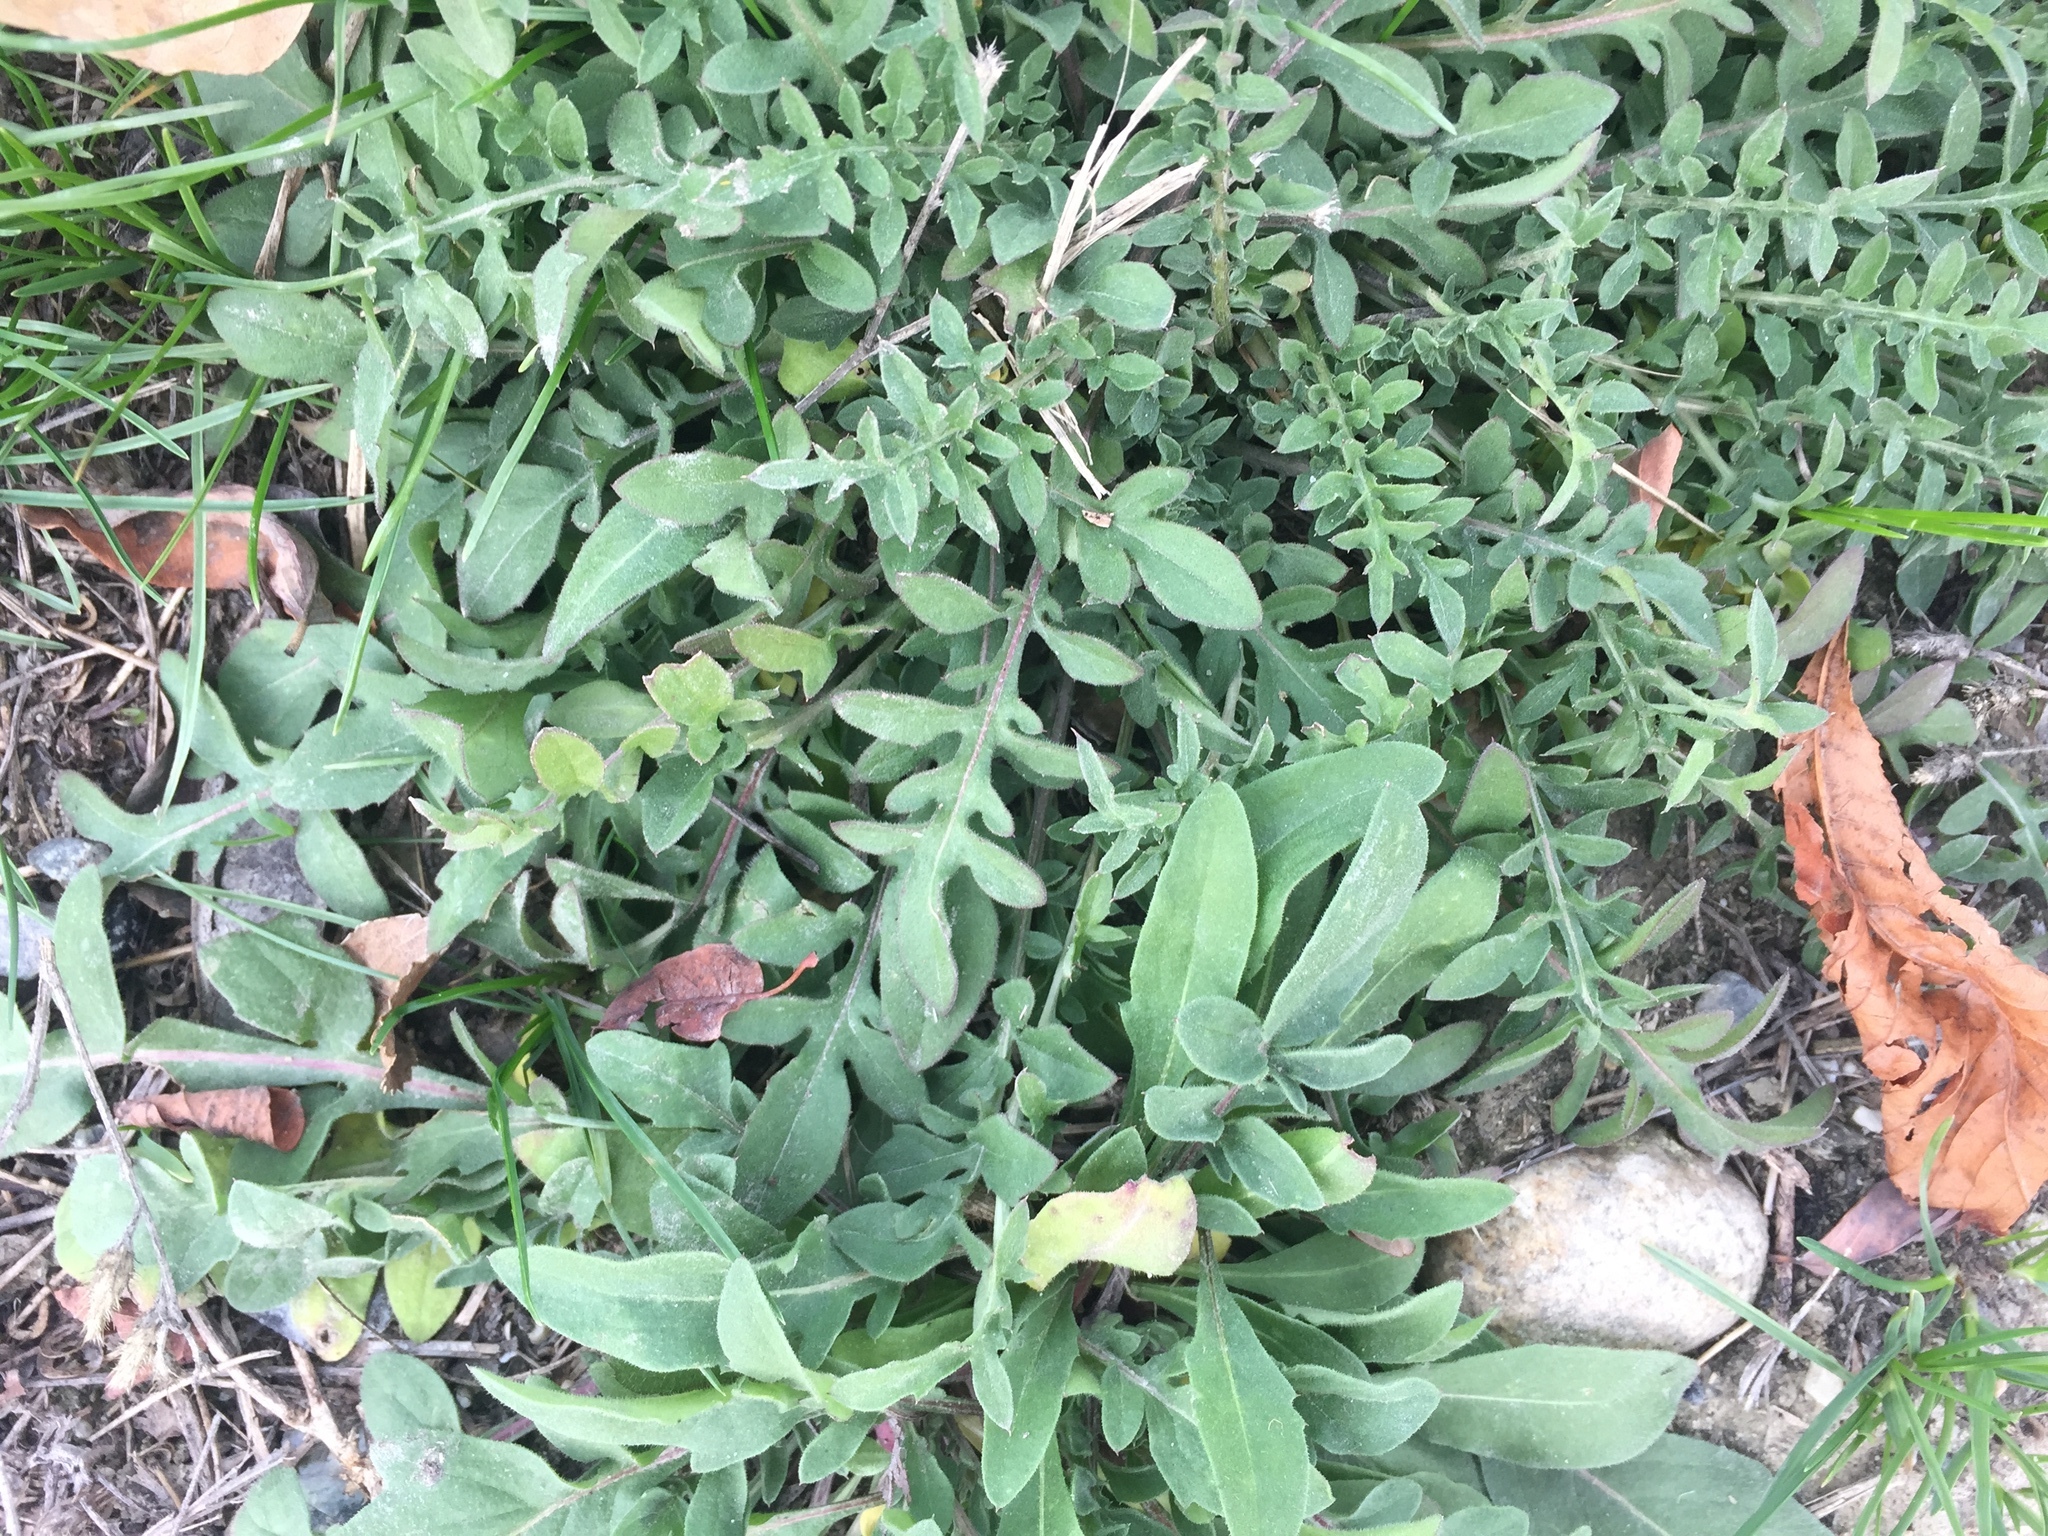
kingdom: Plantae
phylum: Tracheophyta
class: Magnoliopsida
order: Asterales
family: Asteraceae
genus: Centaurea
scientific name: Centaurea diffusa
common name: Diffuse knapweed
